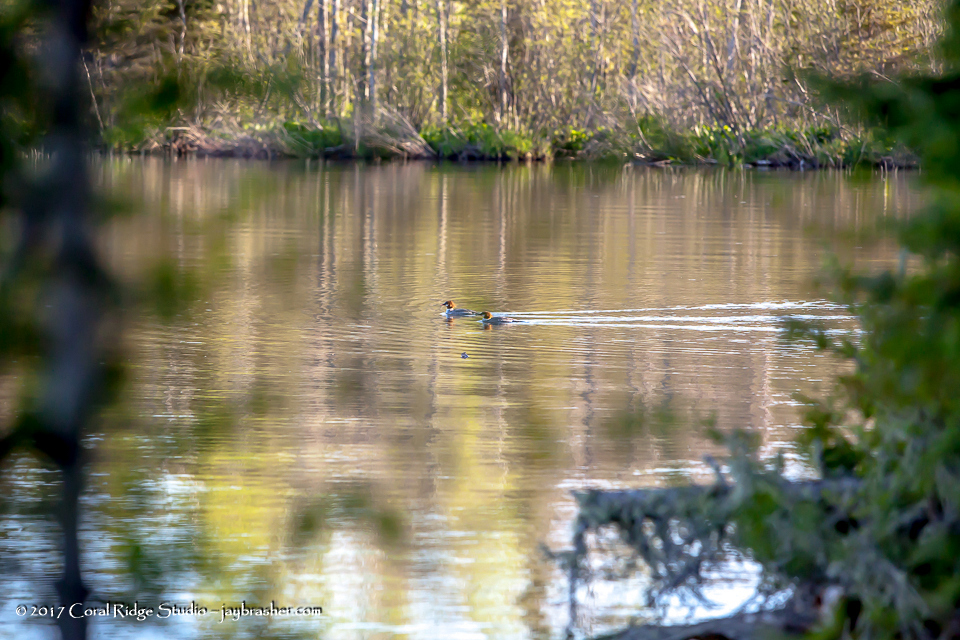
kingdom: Animalia
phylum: Chordata
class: Aves
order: Anseriformes
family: Anatidae
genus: Mergus
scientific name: Mergus merganser
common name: Common merganser
